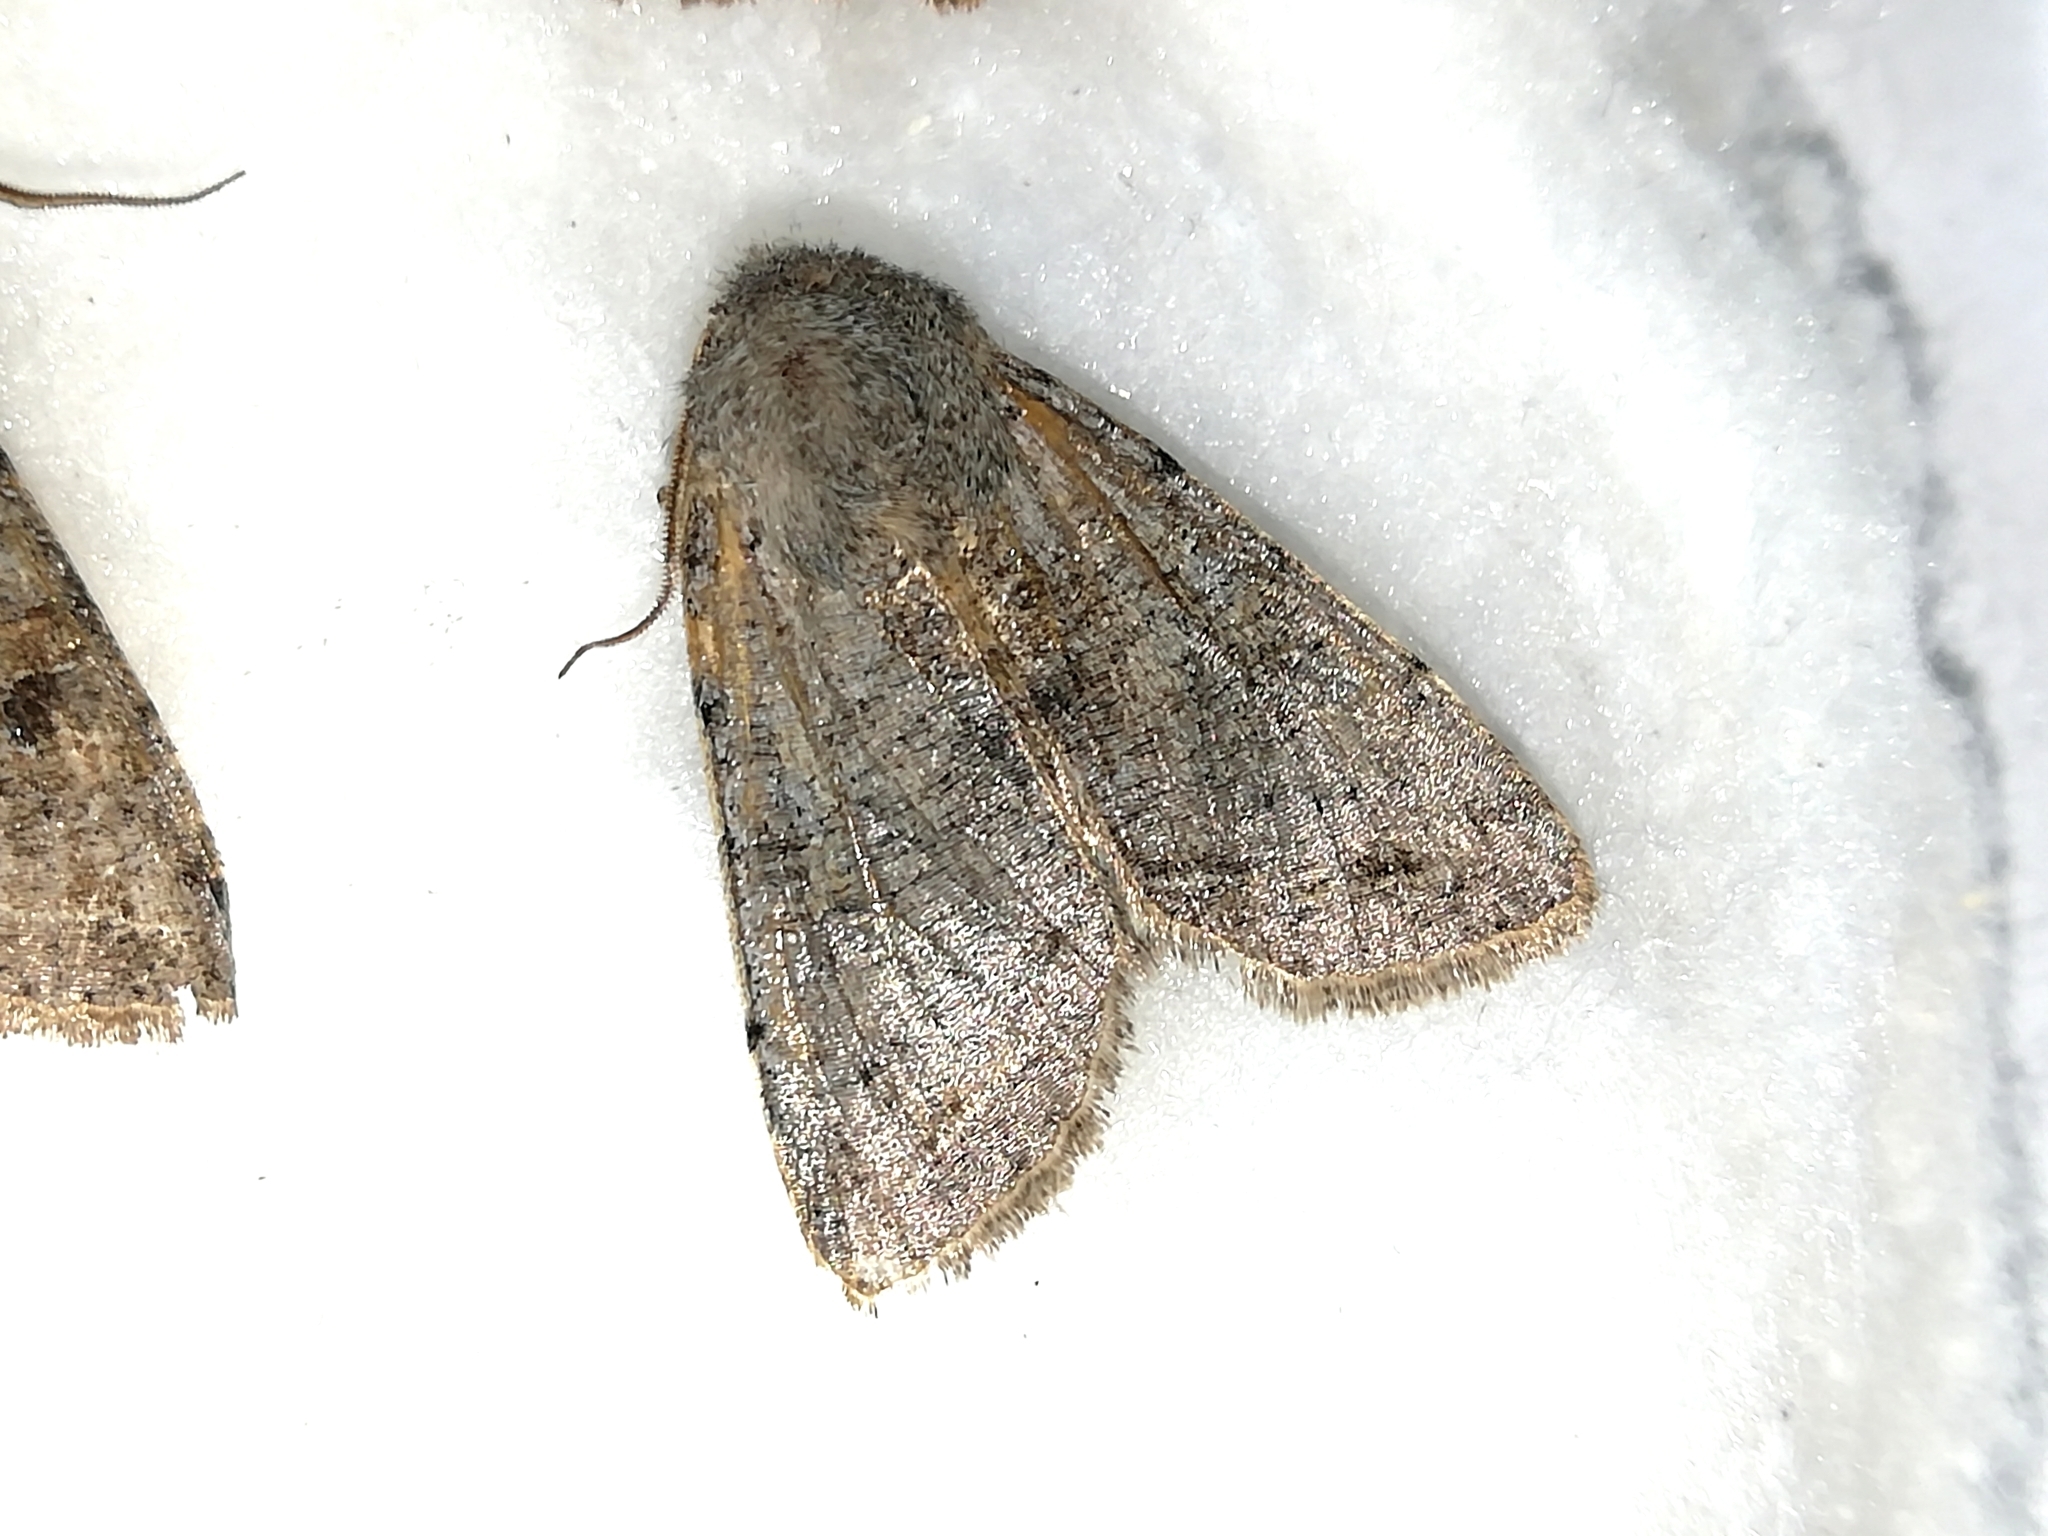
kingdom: Animalia
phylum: Arthropoda
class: Insecta
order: Lepidoptera
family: Noctuidae
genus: Orthosia
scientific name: Orthosia incerta
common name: Clouded drab
